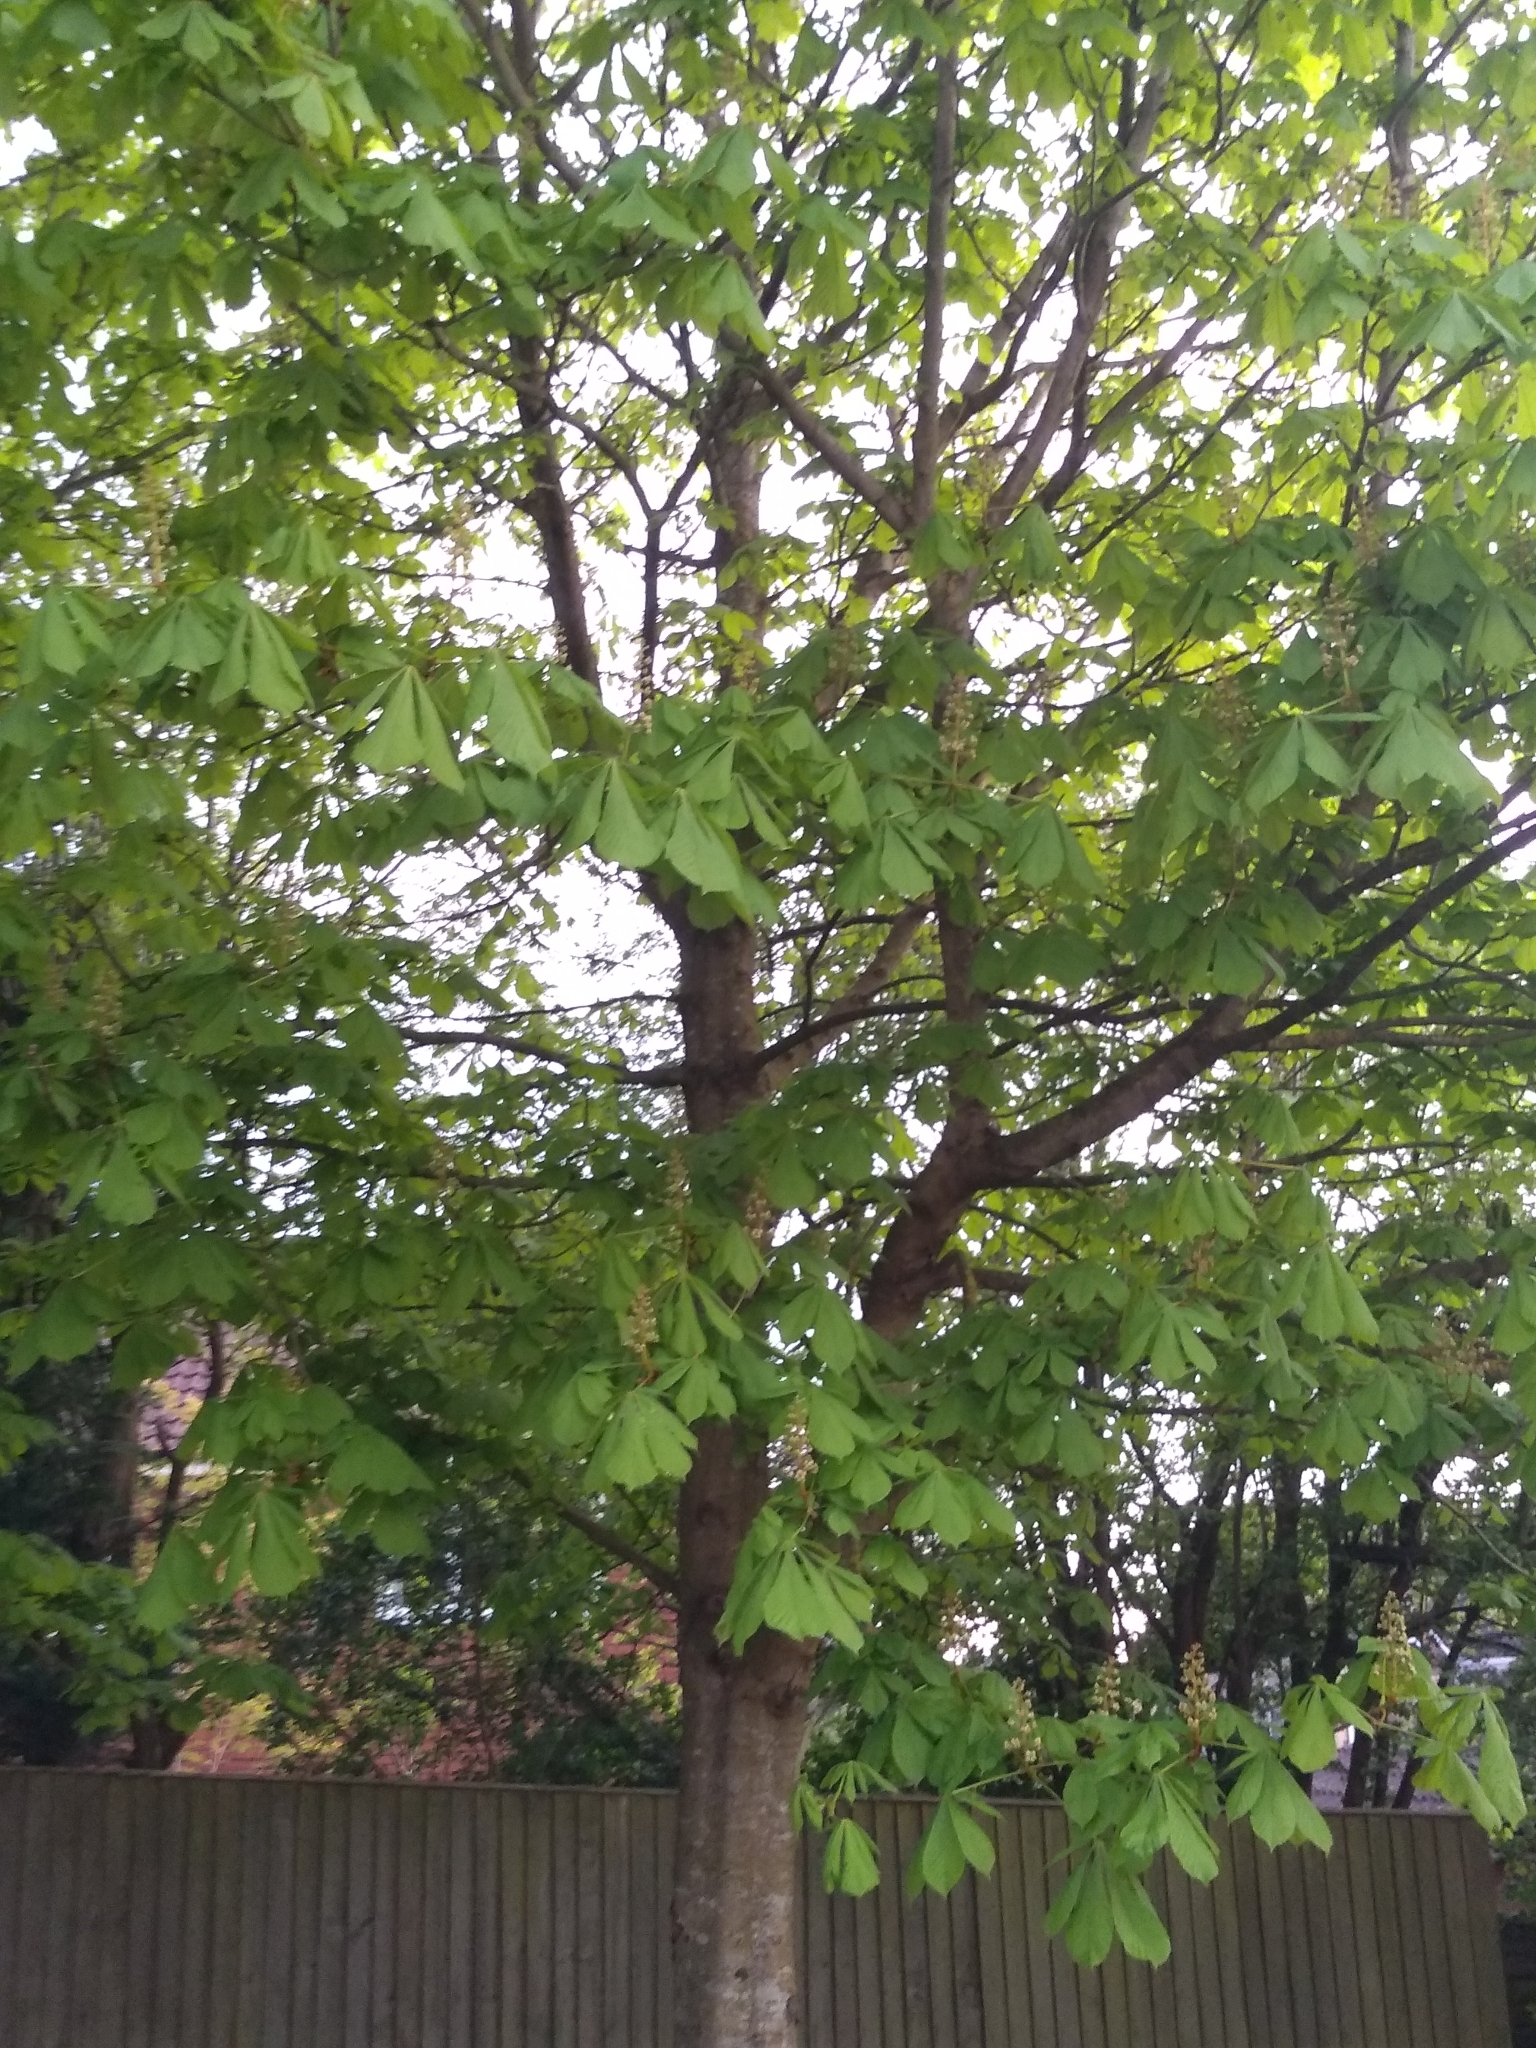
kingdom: Plantae
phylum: Tracheophyta
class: Magnoliopsida
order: Sapindales
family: Sapindaceae
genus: Aesculus
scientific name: Aesculus hippocastanum
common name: Horse-chestnut
